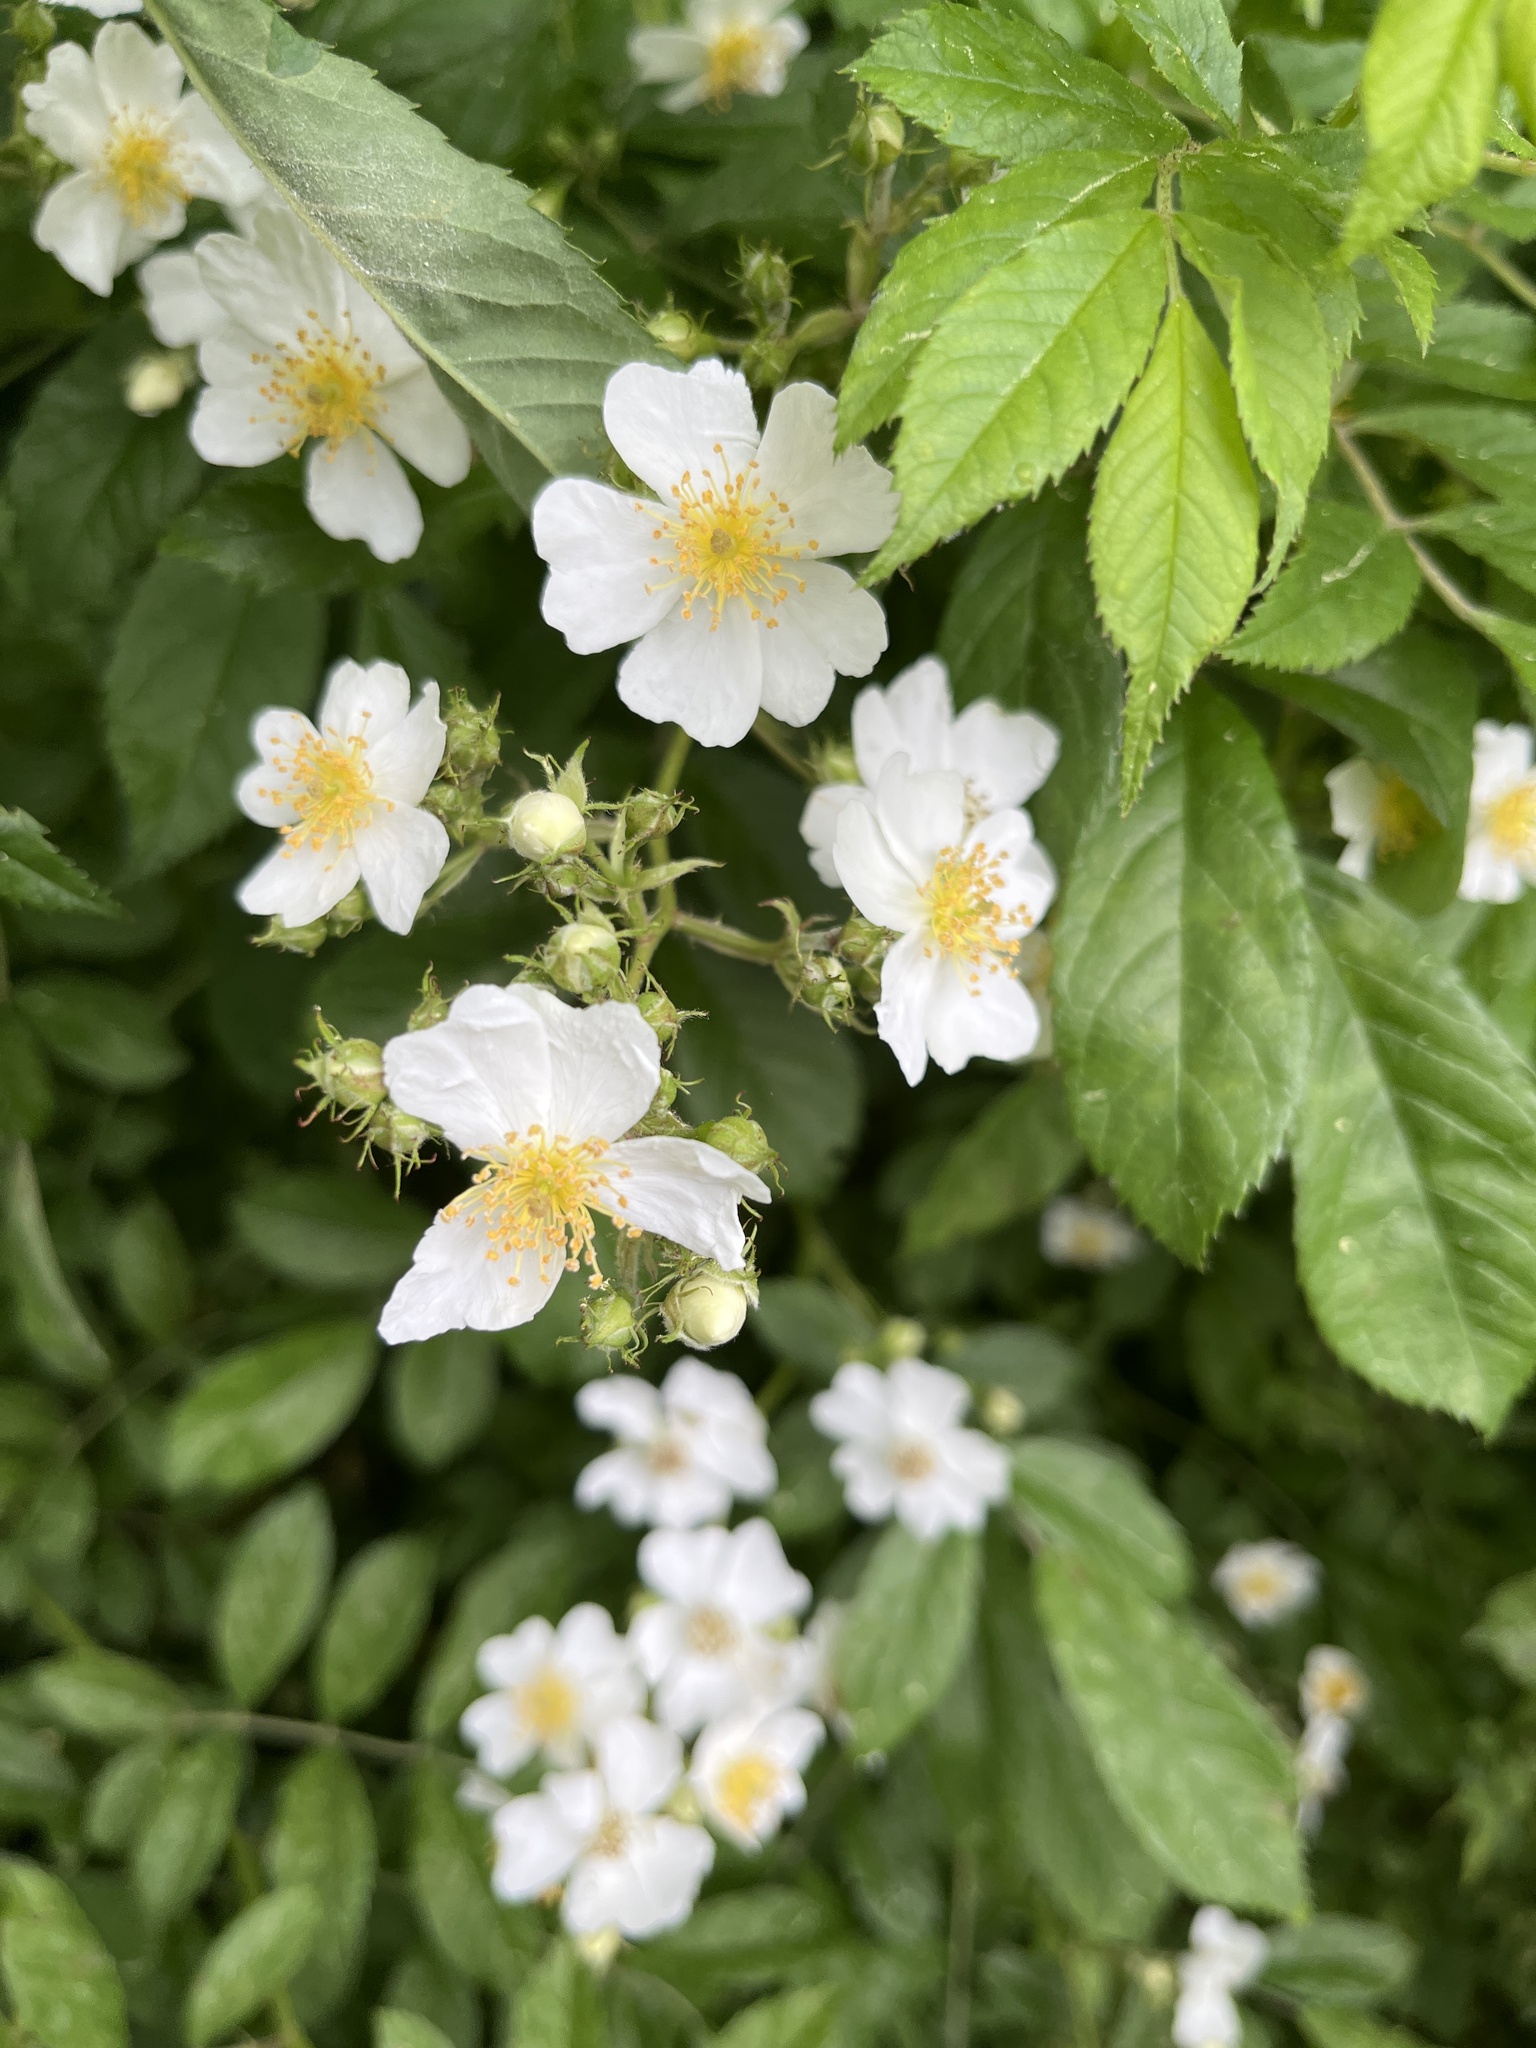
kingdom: Plantae
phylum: Tracheophyta
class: Magnoliopsida
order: Rosales
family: Rosaceae
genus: Rosa
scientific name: Rosa multiflora
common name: Multiflora rose
